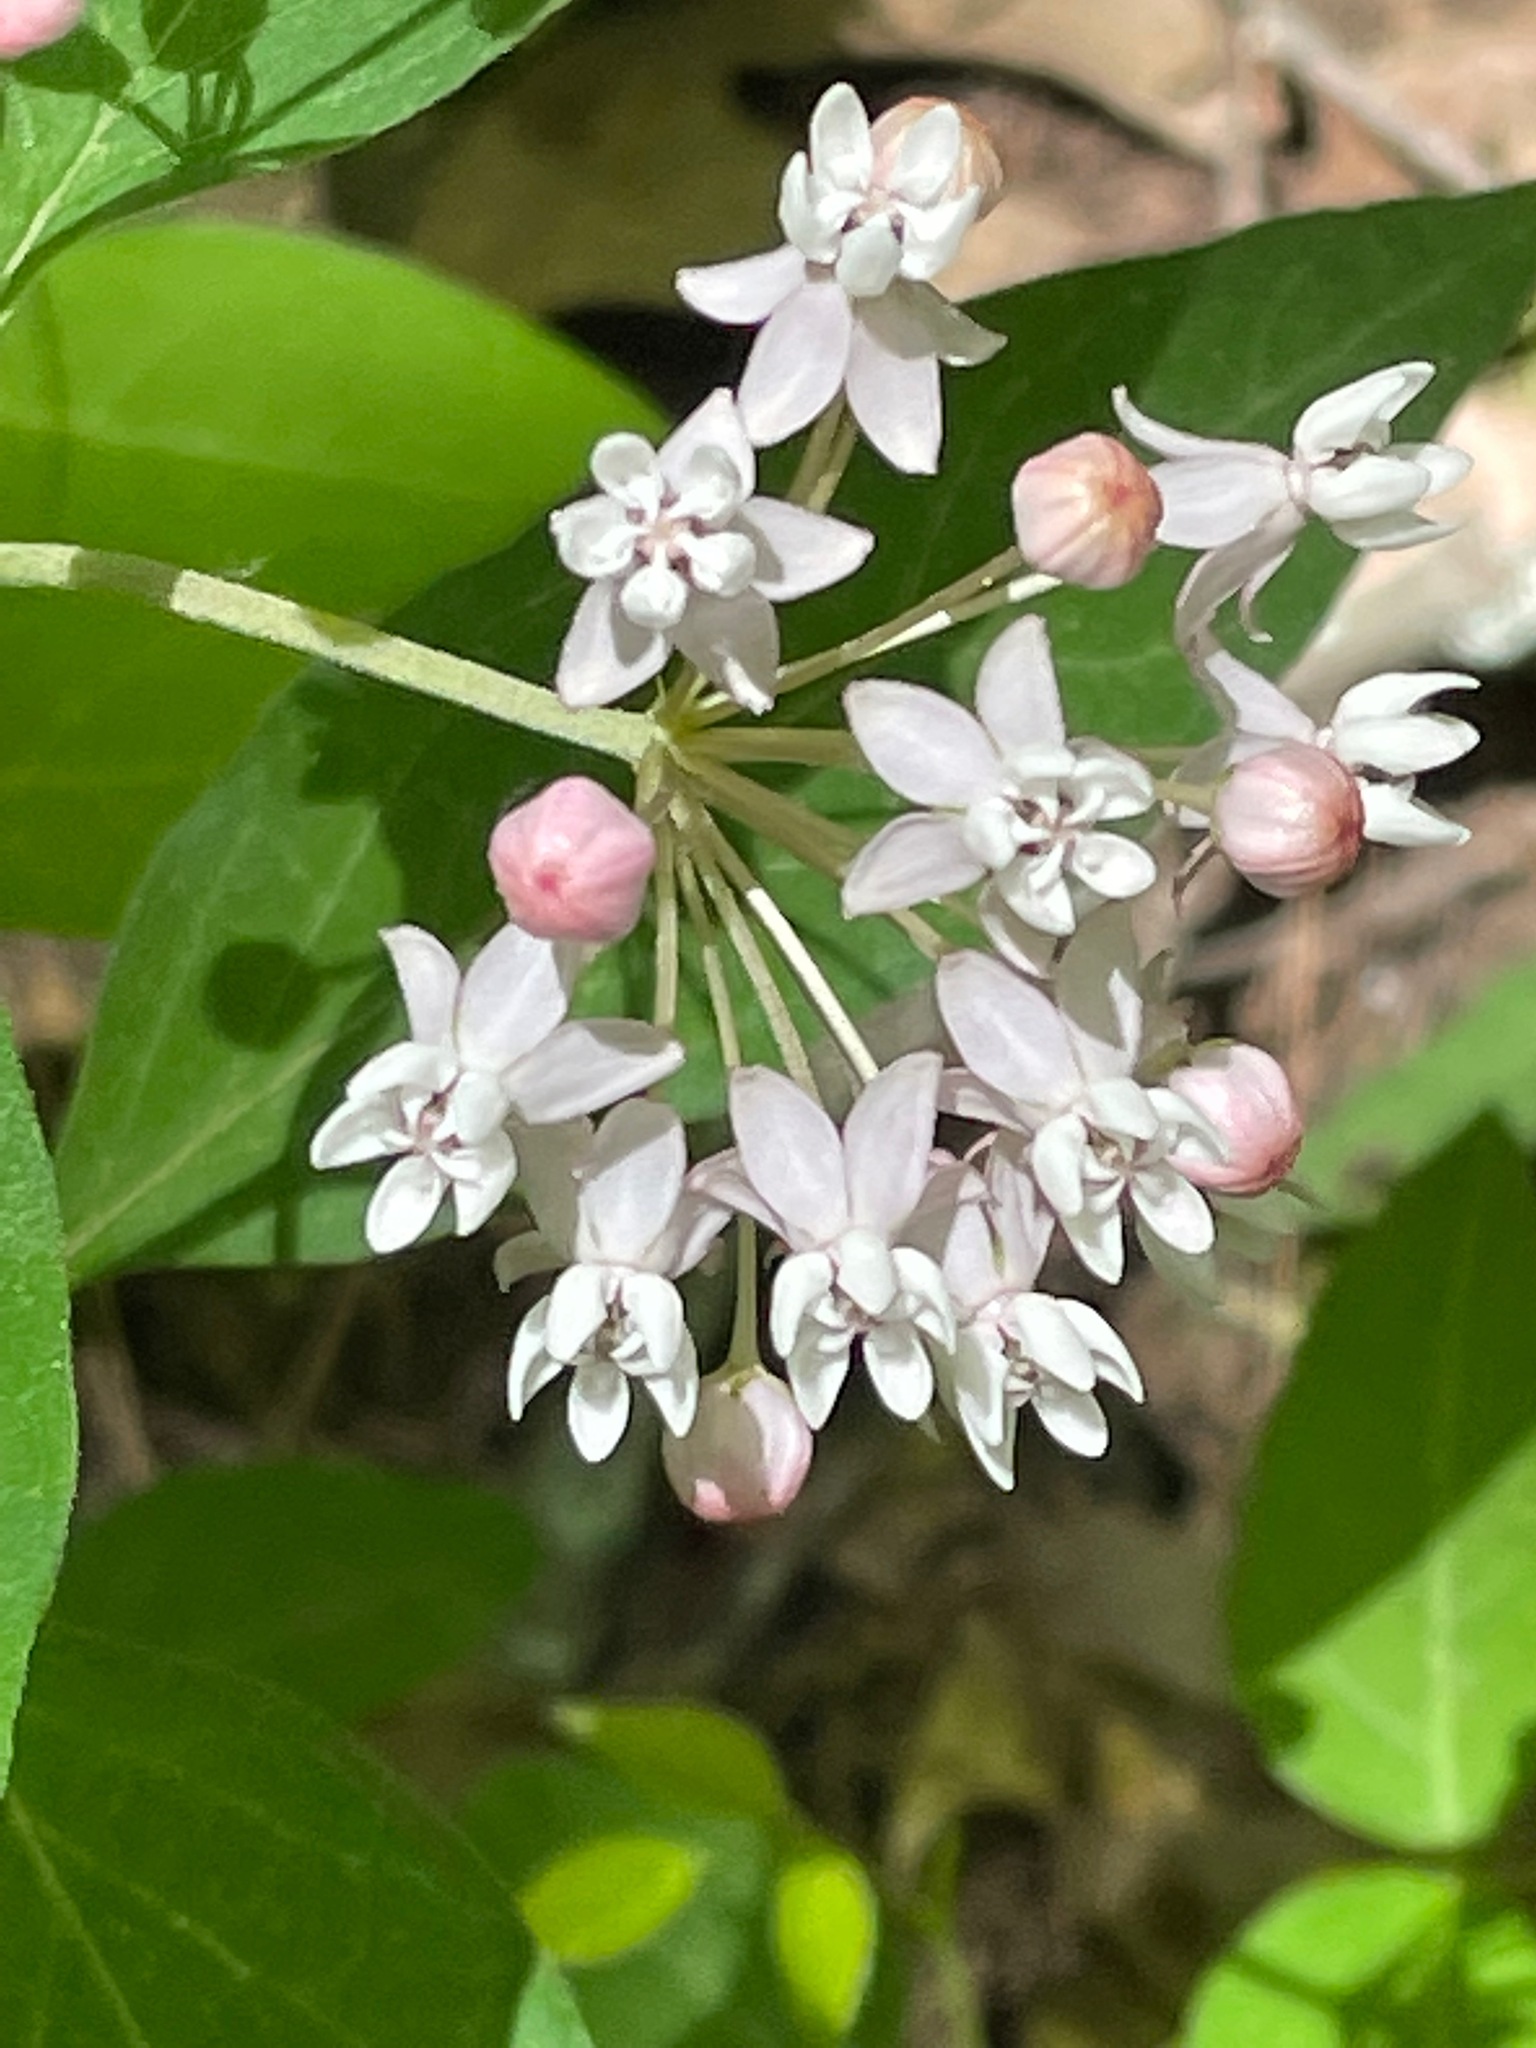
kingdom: Plantae
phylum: Tracheophyta
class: Magnoliopsida
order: Gentianales
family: Apocynaceae
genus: Asclepias
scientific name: Asclepias quadrifolia
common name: Whorled milkweed
